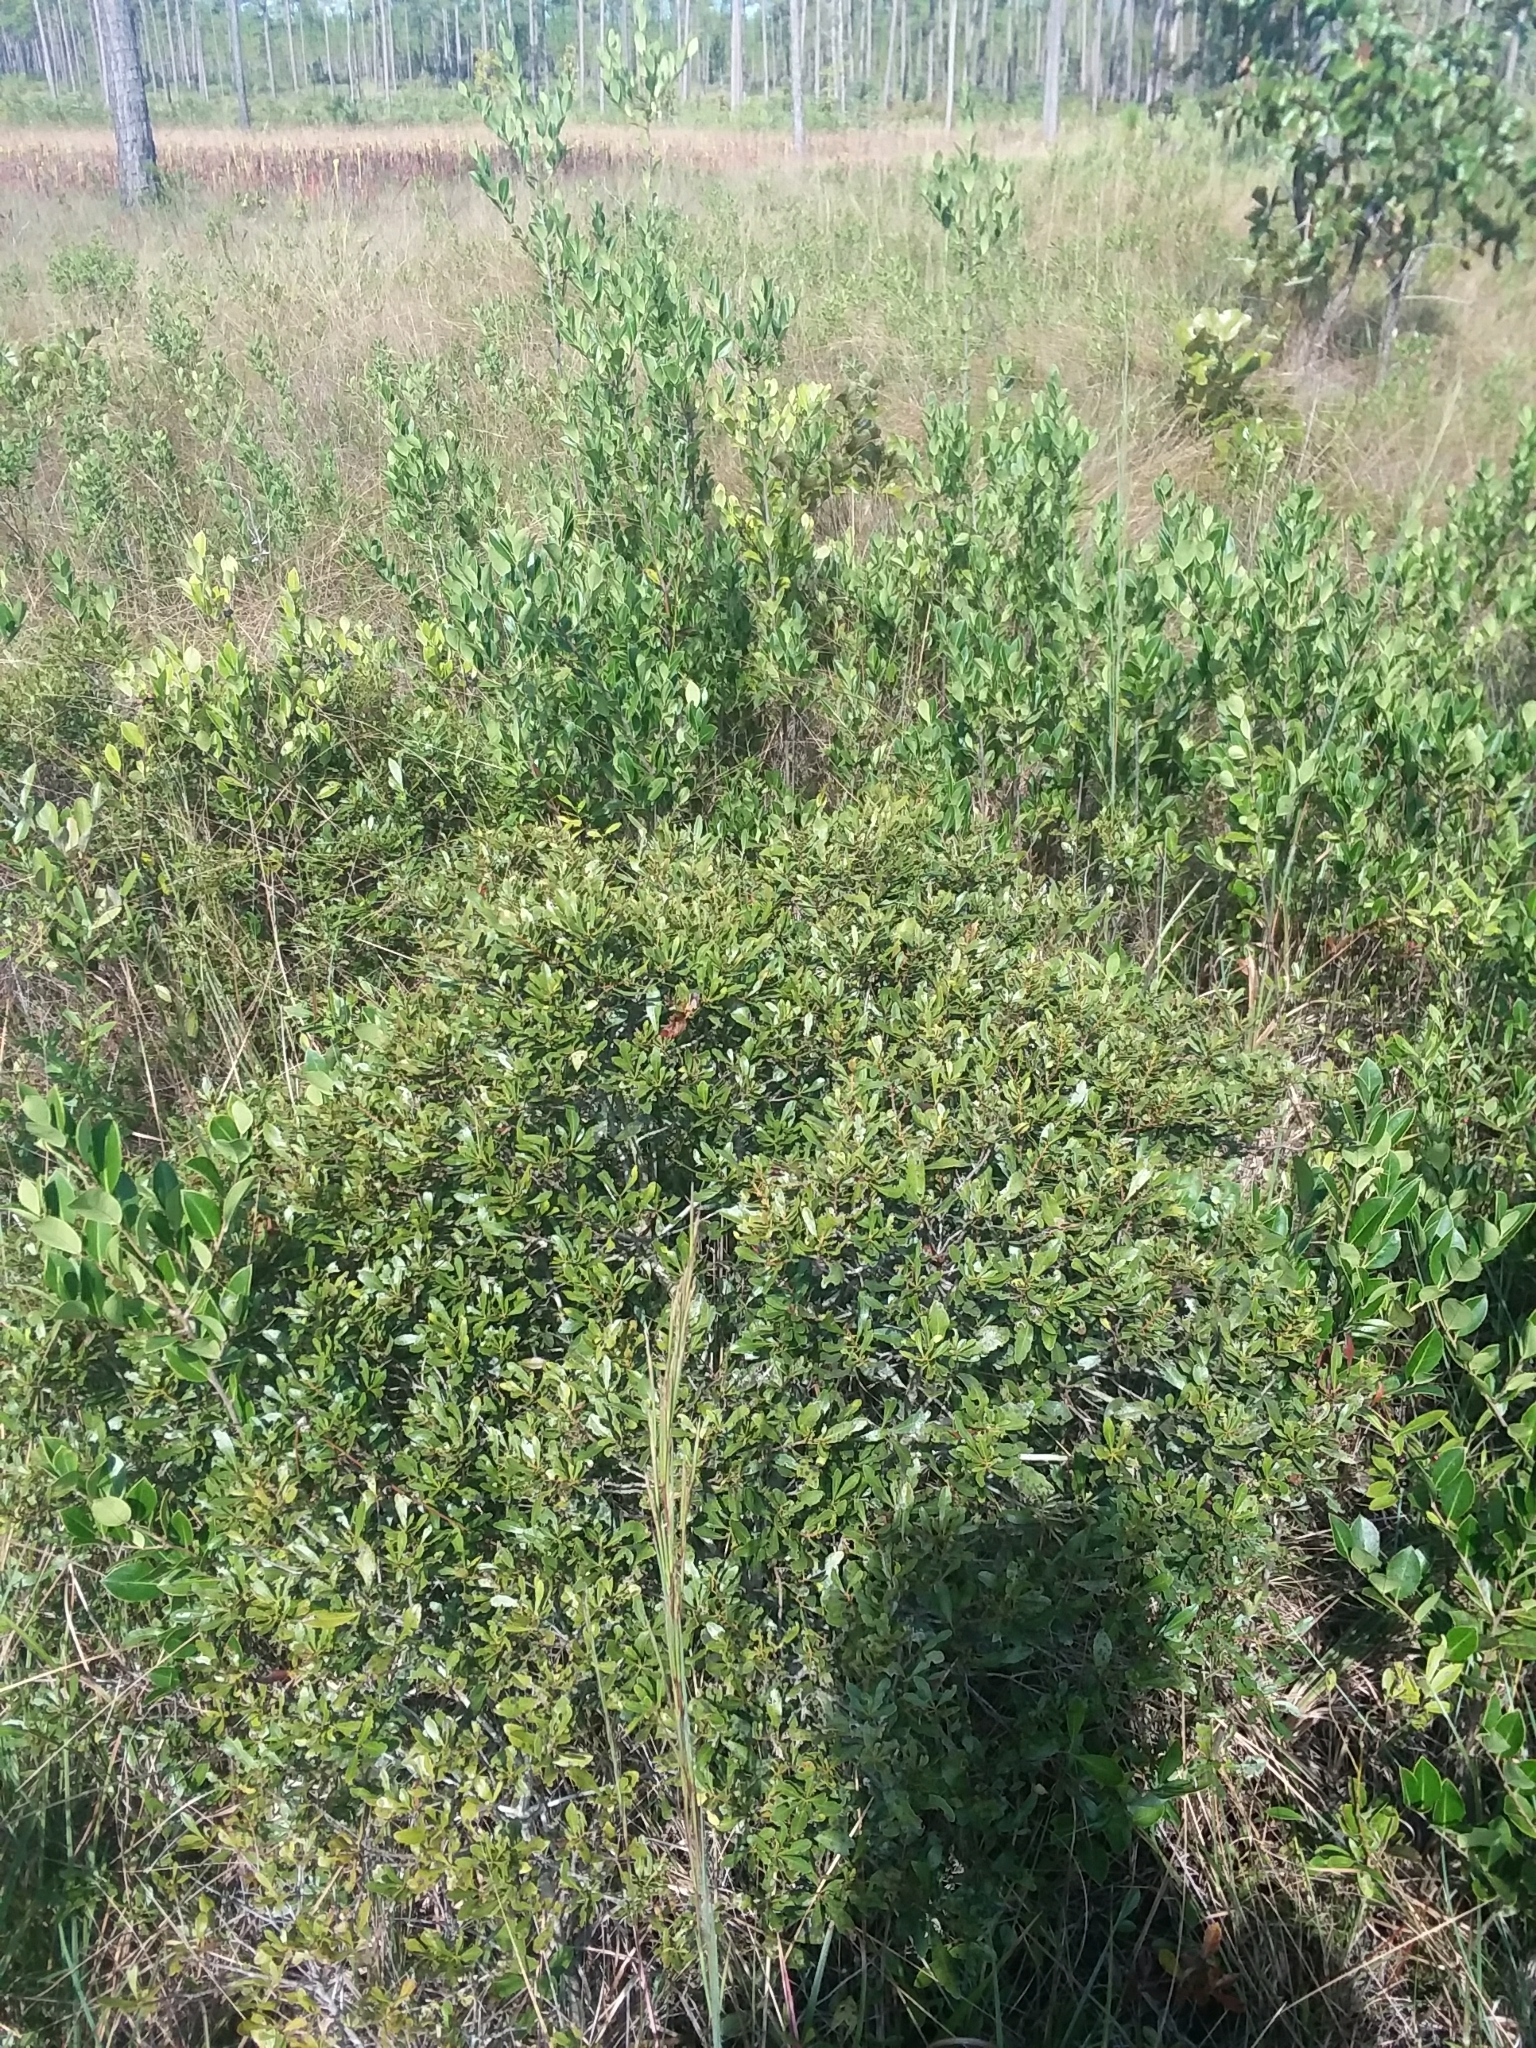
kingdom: Plantae
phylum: Tracheophyta
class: Magnoliopsida
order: Fagales
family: Myricaceae
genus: Morella
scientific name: Morella cerifera
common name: Wax myrtle
